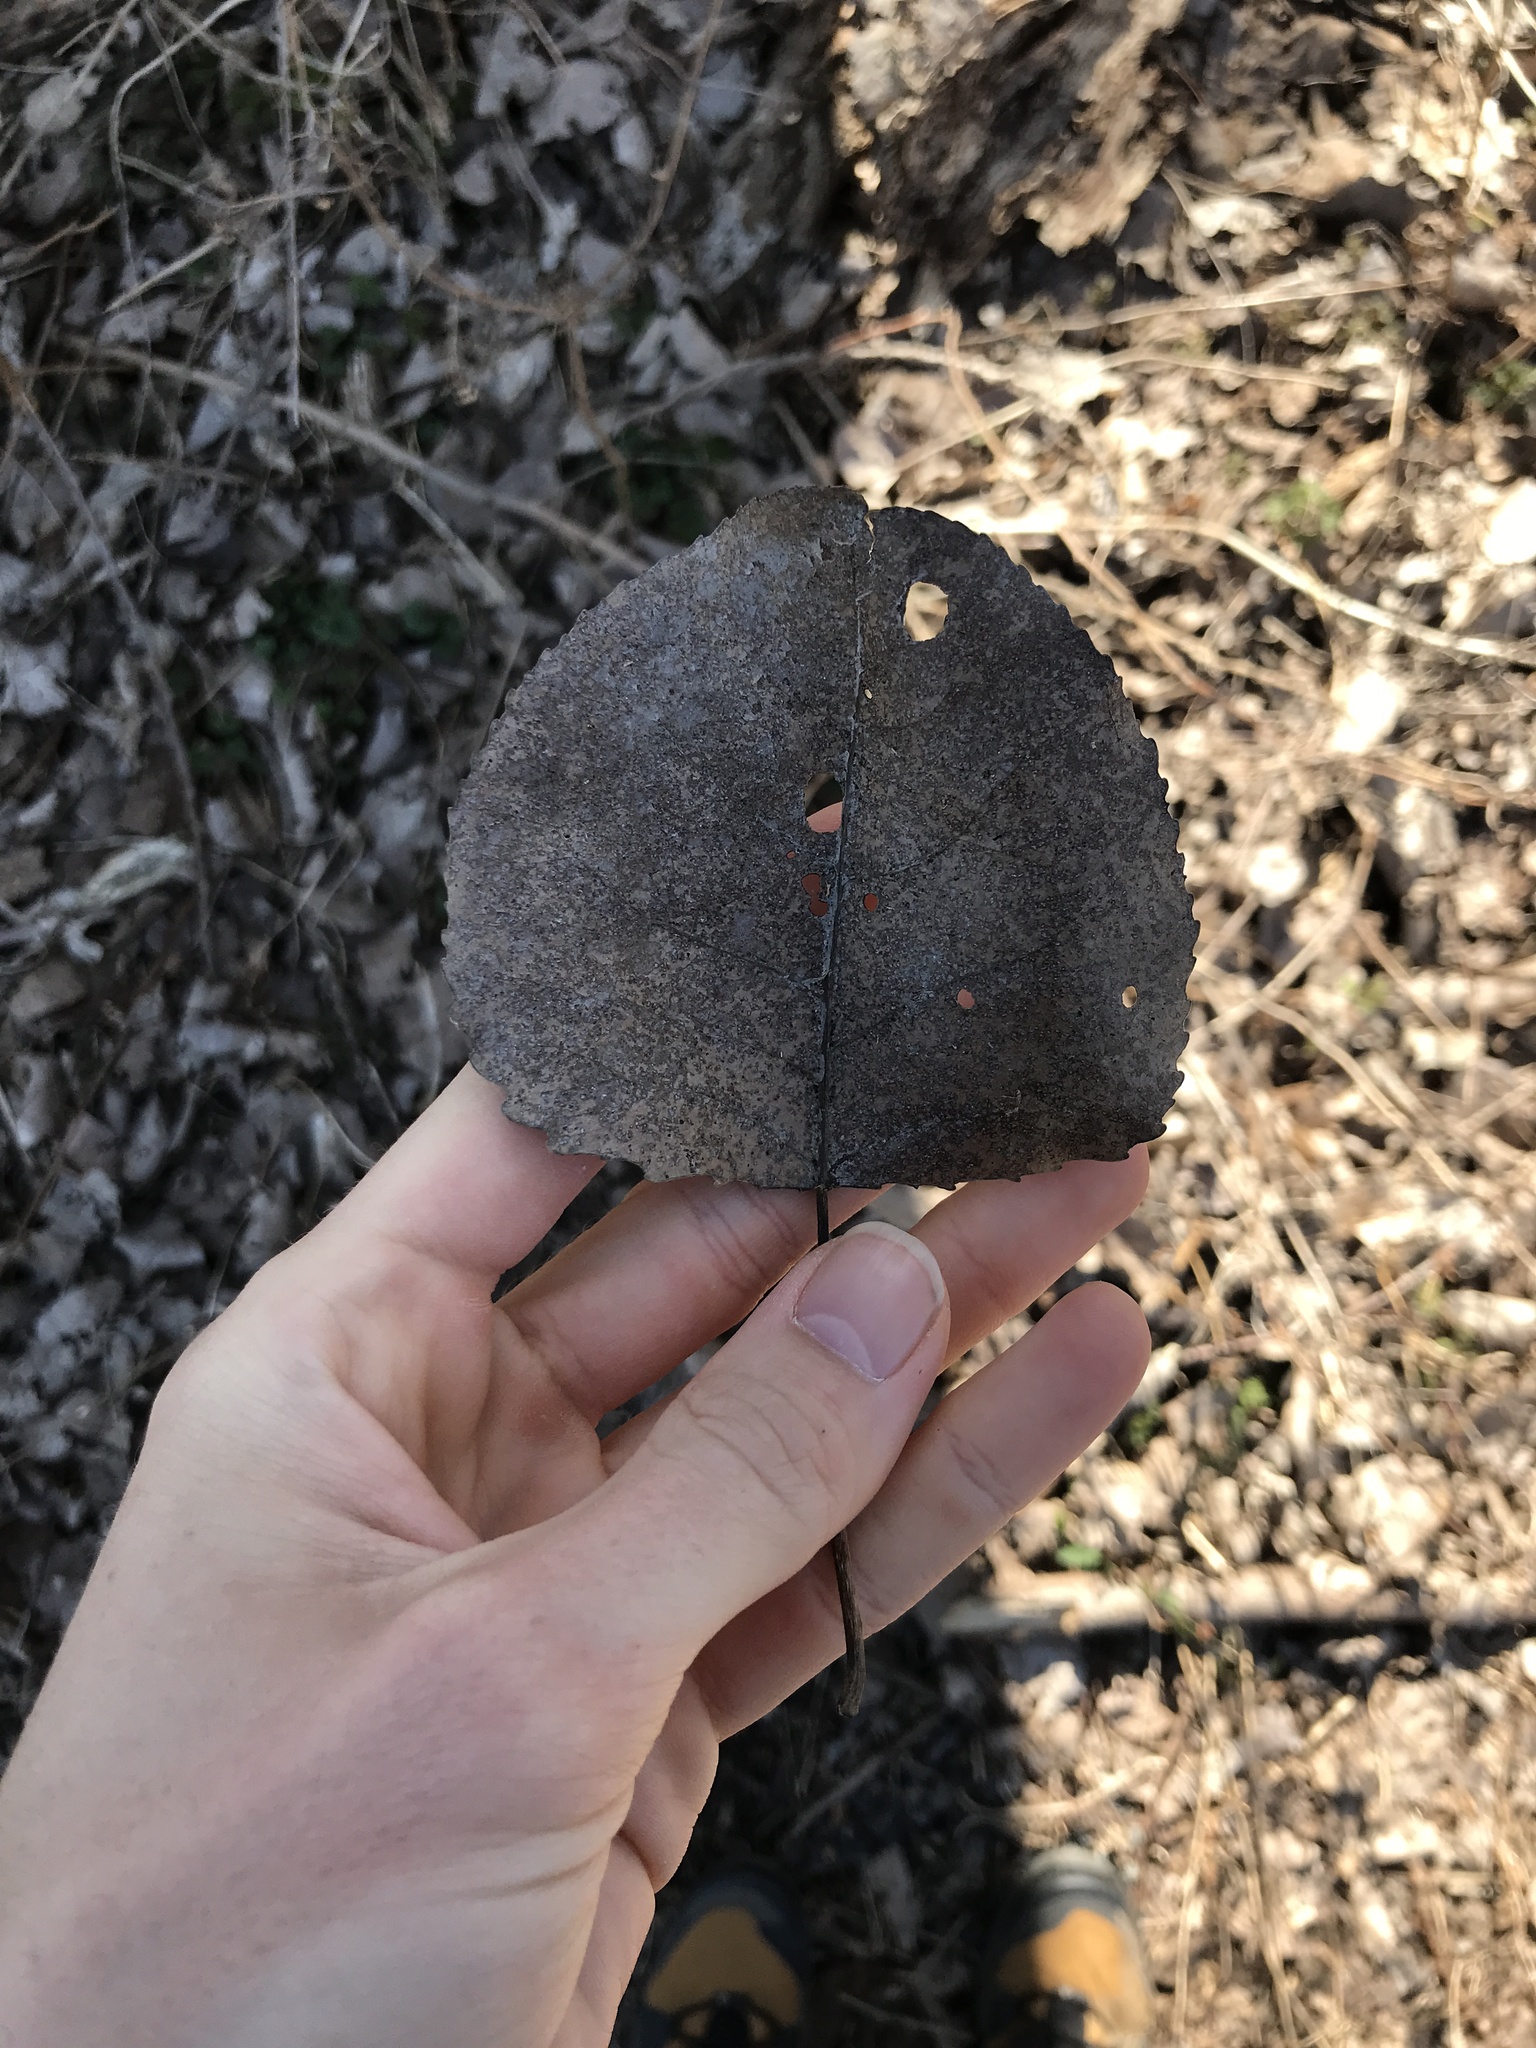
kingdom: Plantae
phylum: Tracheophyta
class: Magnoliopsida
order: Malpighiales
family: Salicaceae
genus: Populus
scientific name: Populus deltoides
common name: Eastern cottonwood
